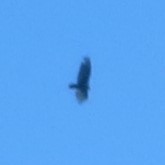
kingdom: Animalia
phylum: Chordata
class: Aves
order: Accipitriformes
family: Cathartidae
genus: Cathartes
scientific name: Cathartes aura
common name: Turkey vulture
